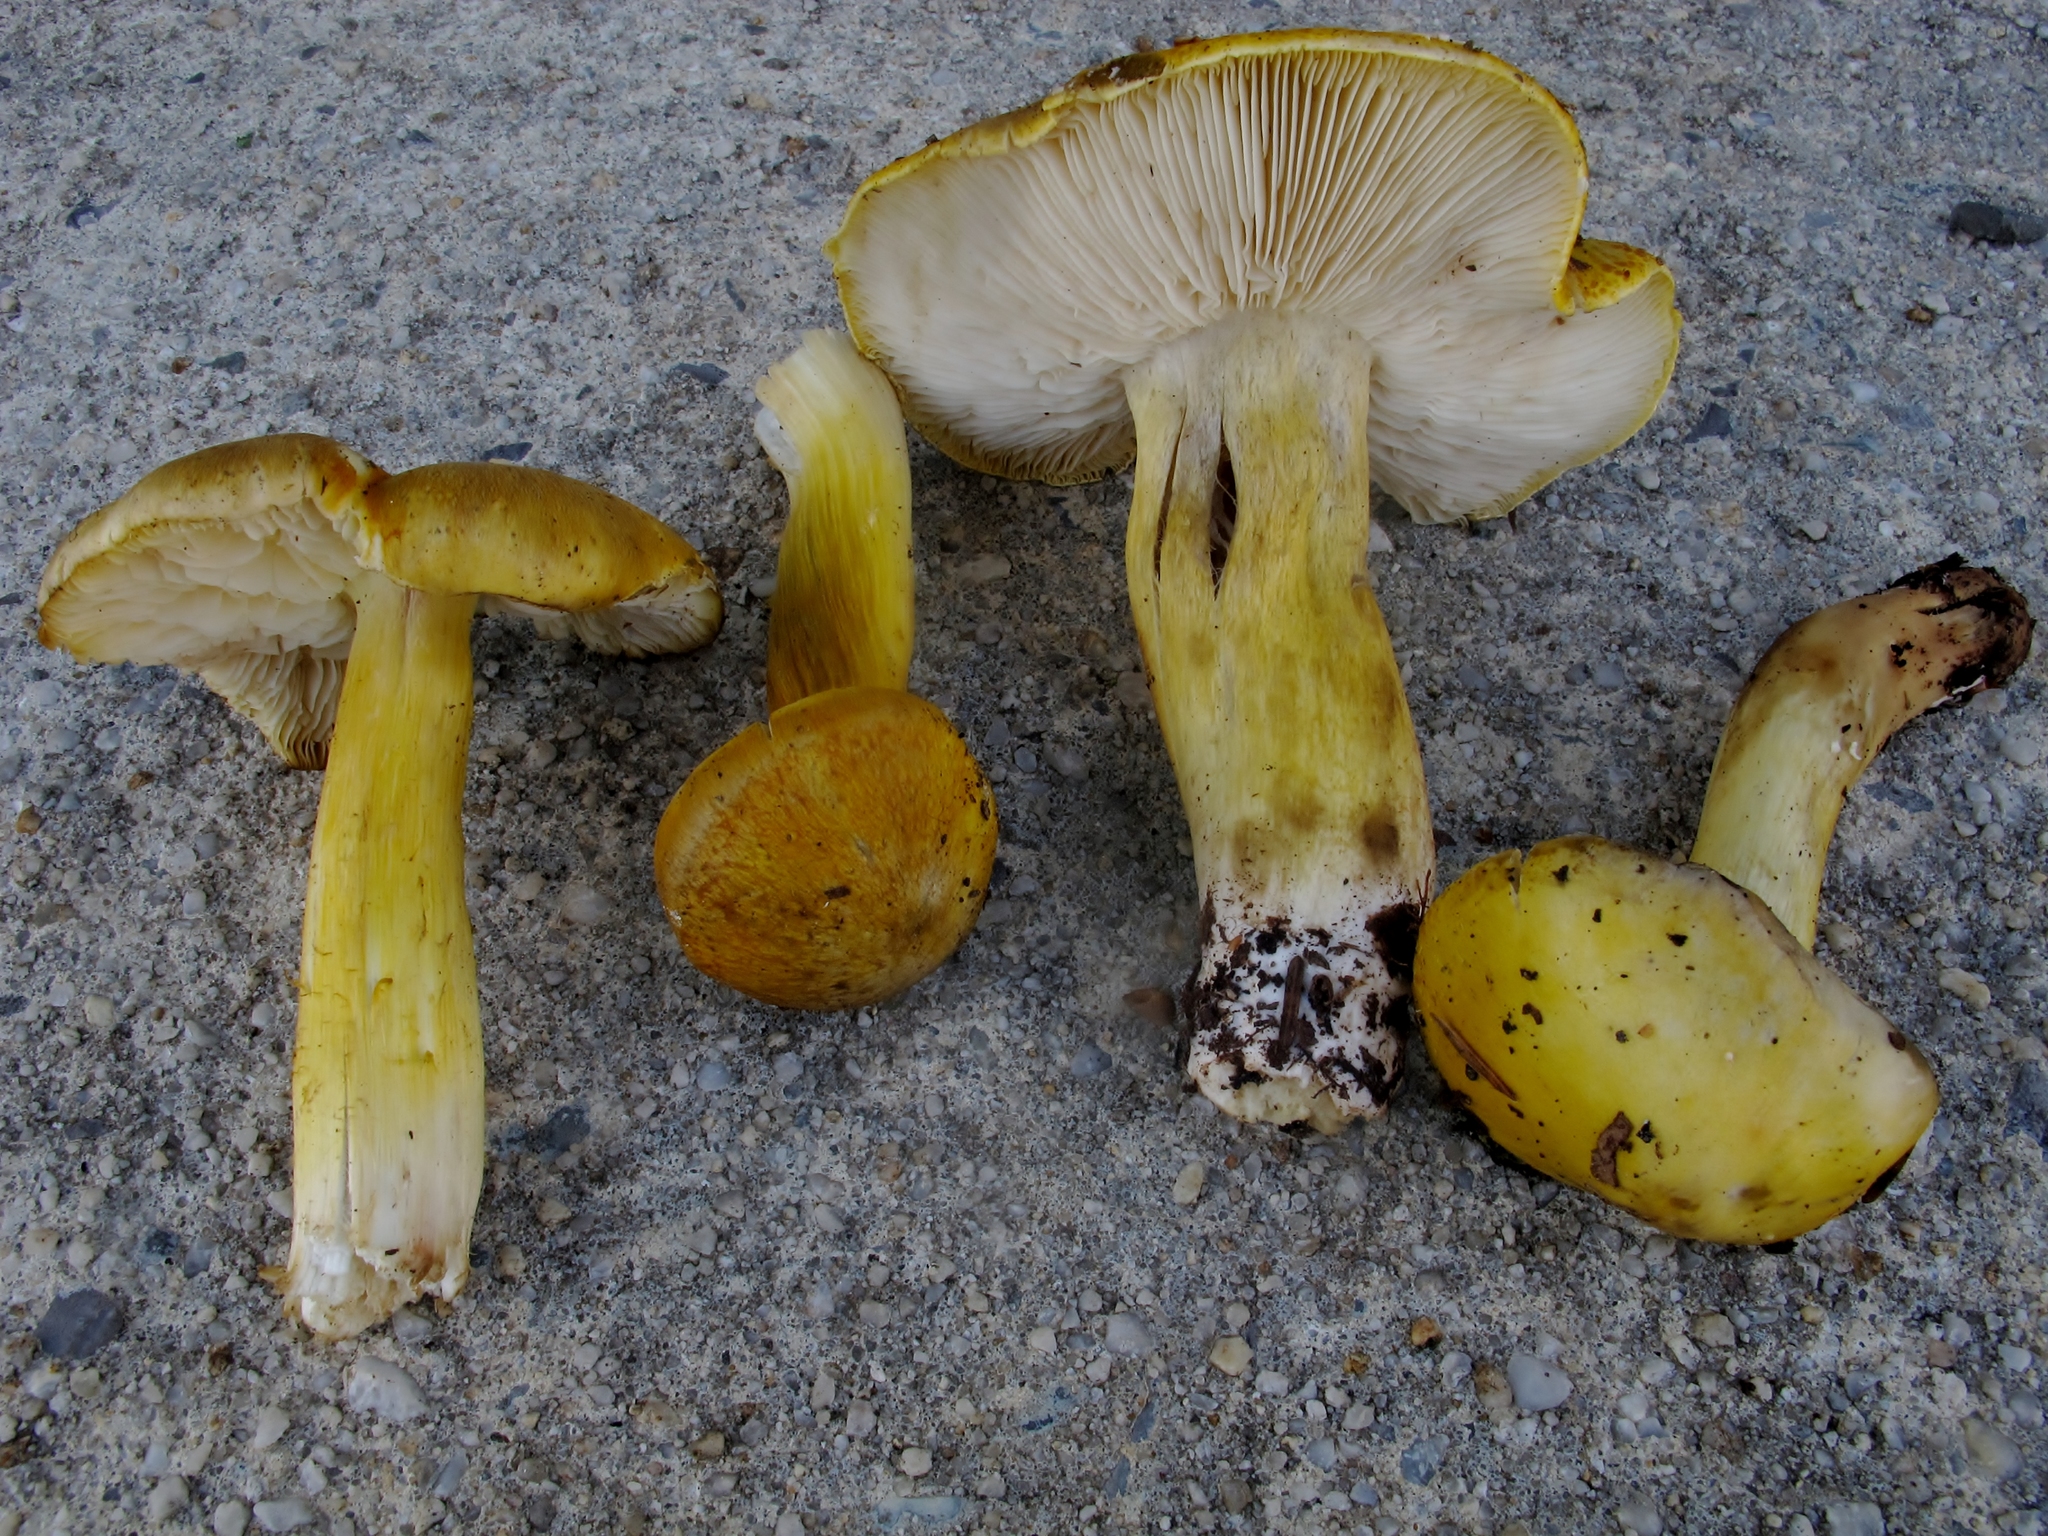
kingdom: Fungi
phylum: Basidiomycota
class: Agaricomycetes
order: Agaricales
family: Tricholomataceae
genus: Tricholoma
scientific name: Tricholoma subluteum
